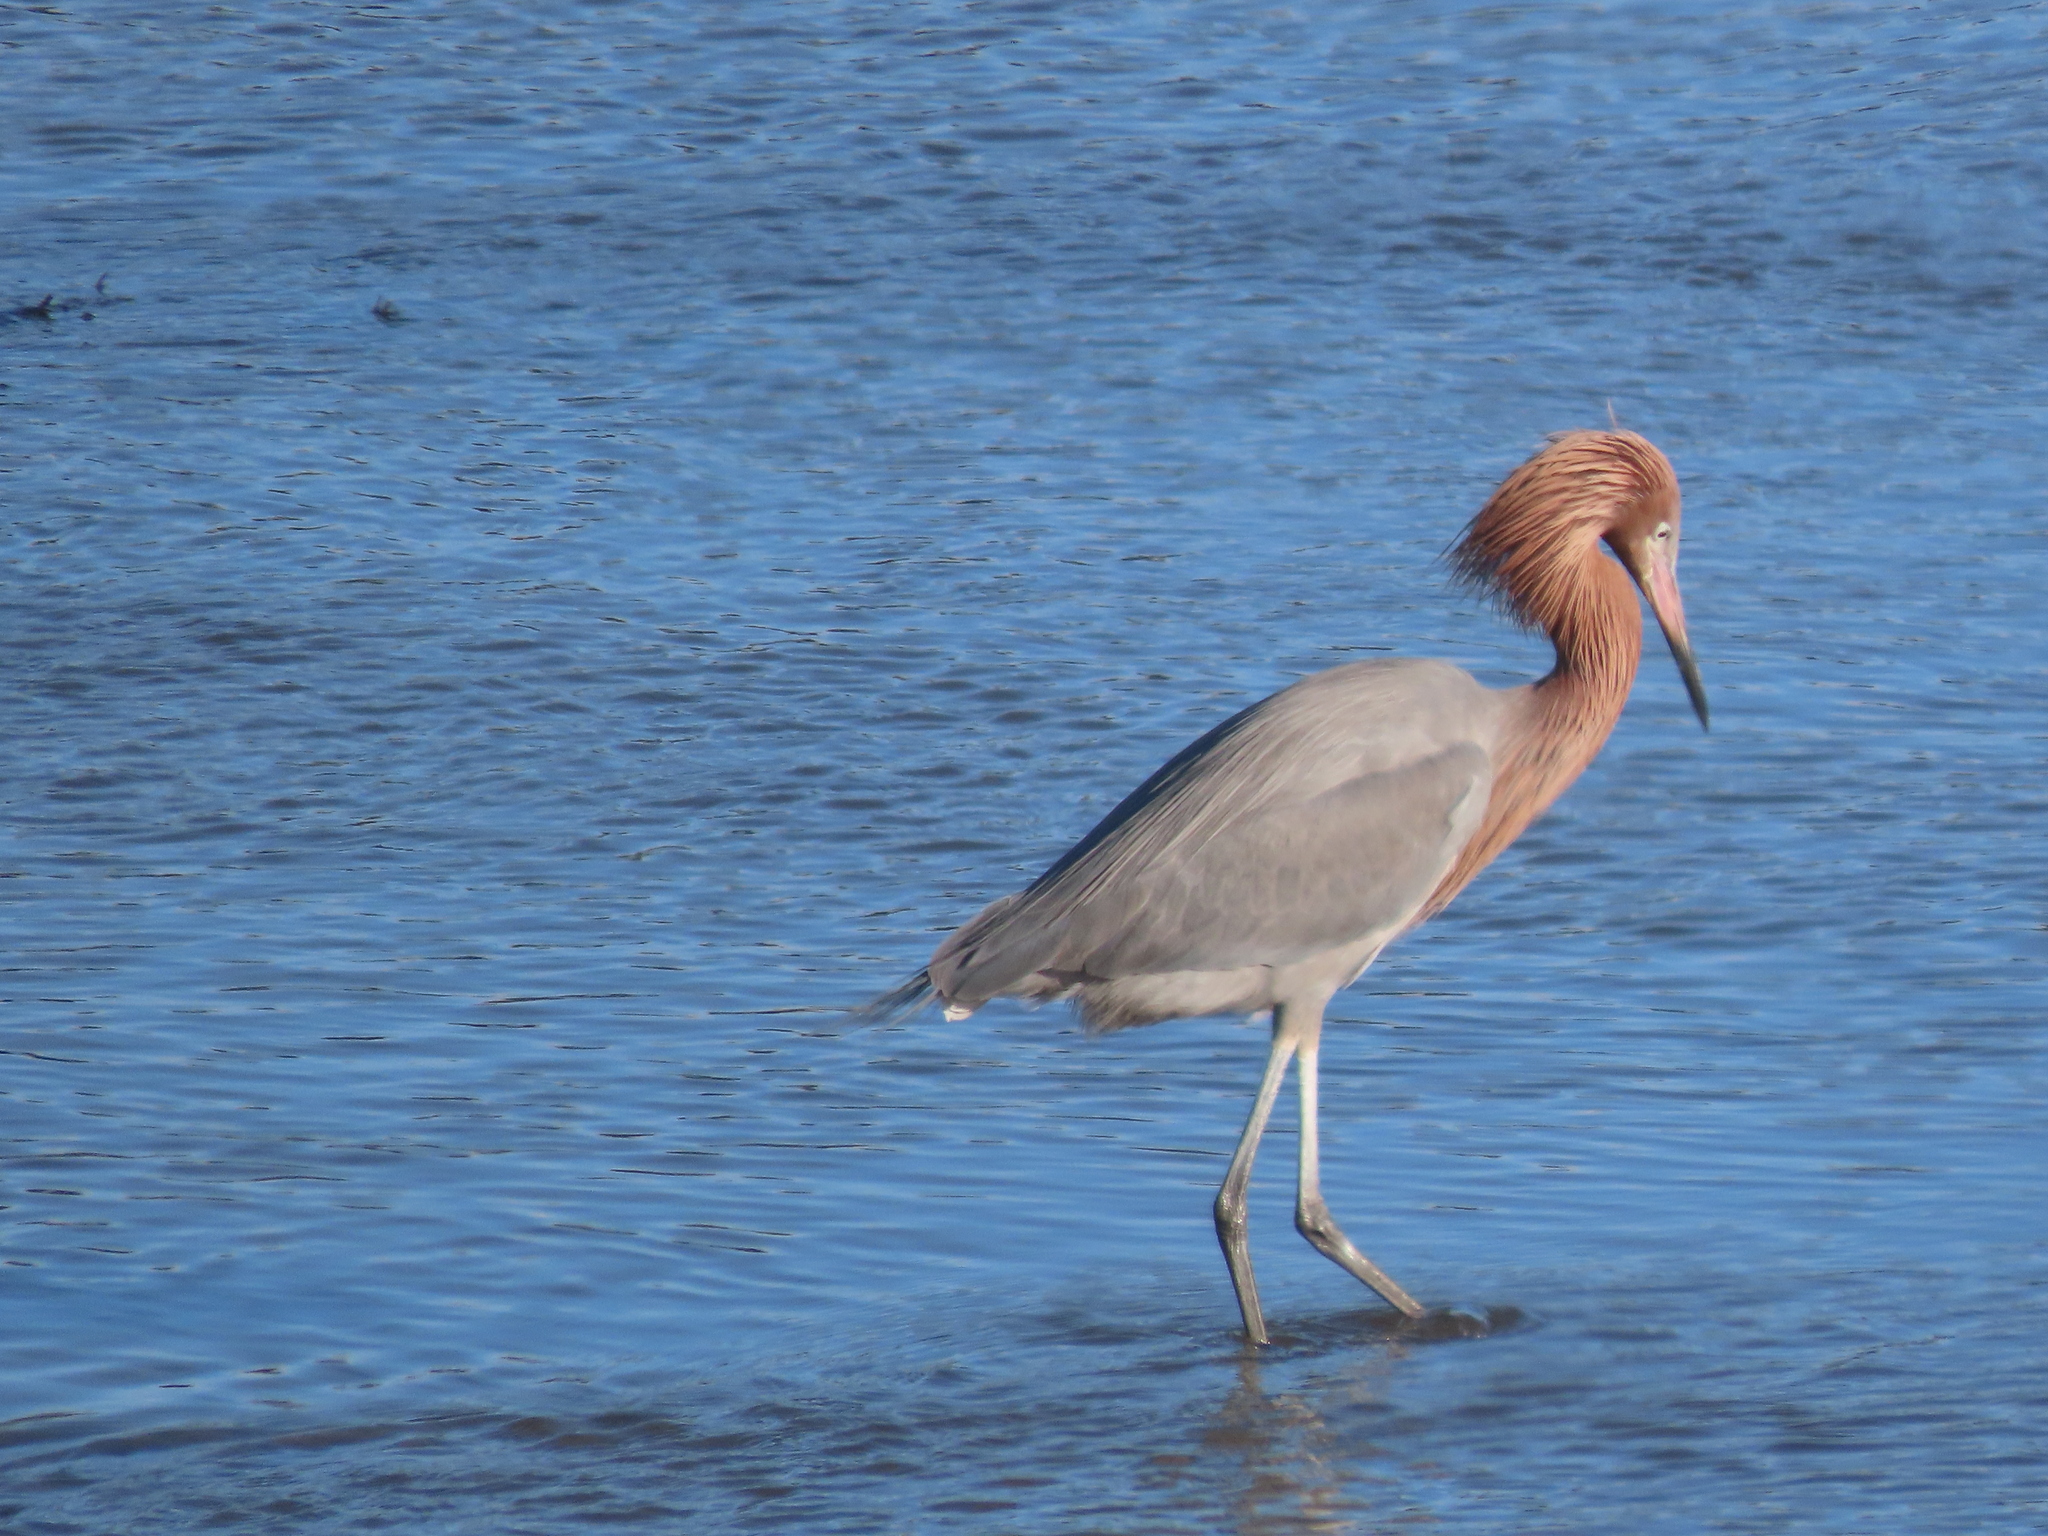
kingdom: Animalia
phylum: Chordata
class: Aves
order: Pelecaniformes
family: Ardeidae
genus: Egretta
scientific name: Egretta rufescens
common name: Reddish egret
